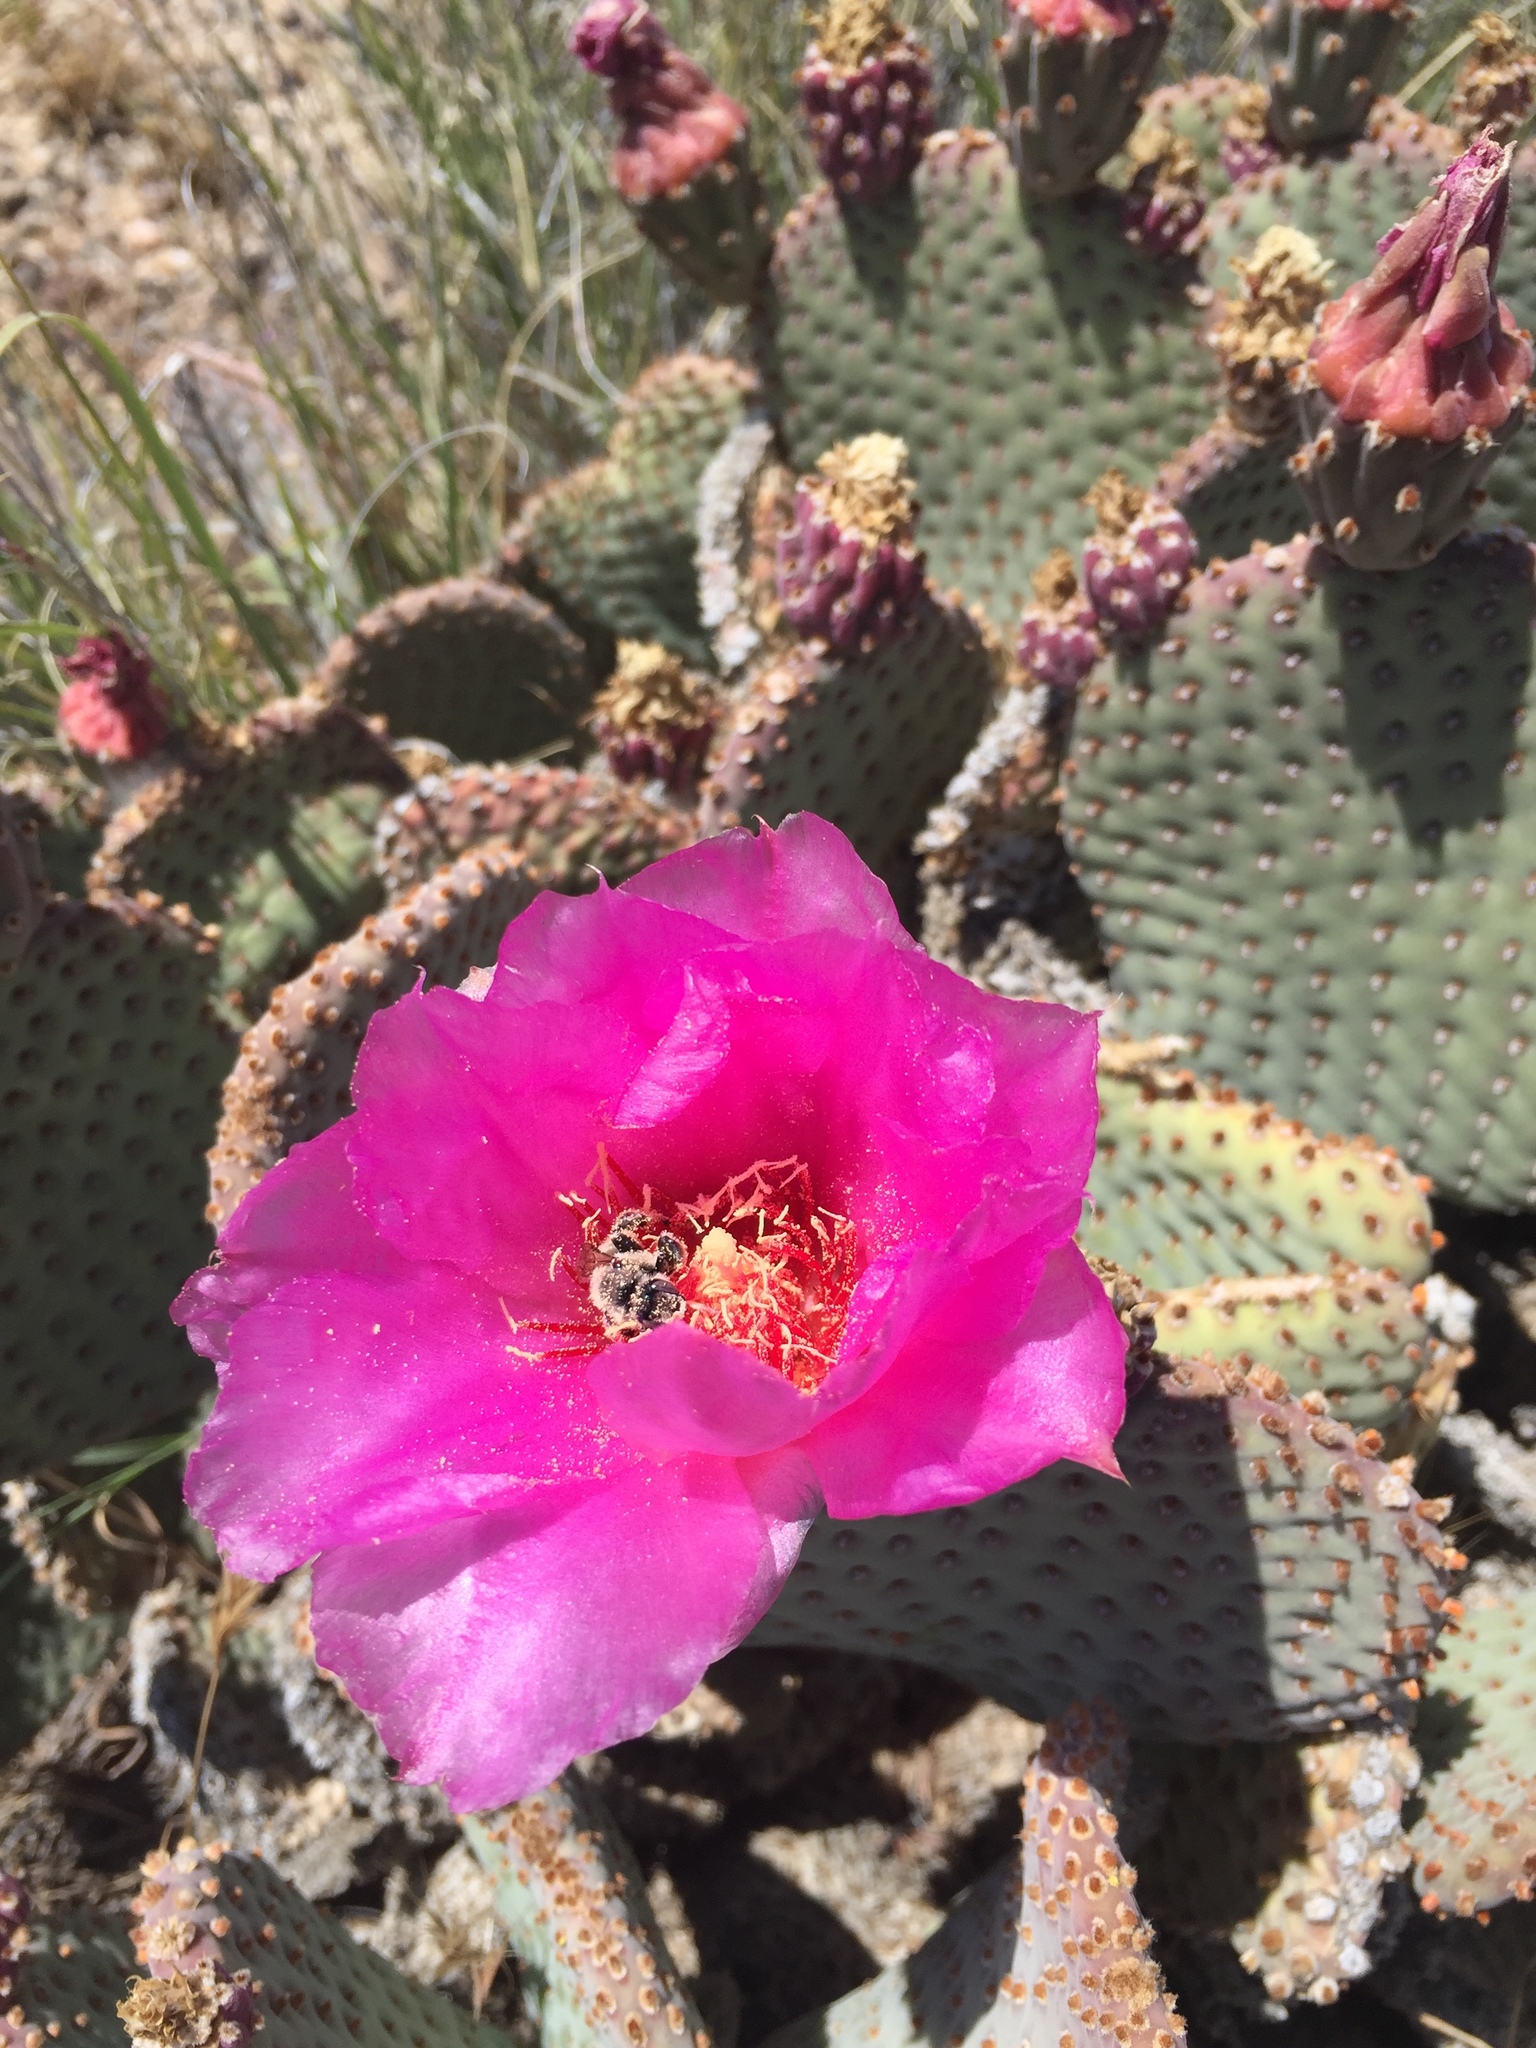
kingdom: Plantae
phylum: Tracheophyta
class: Magnoliopsida
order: Caryophyllales
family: Cactaceae
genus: Opuntia
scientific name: Opuntia basilaris
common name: Beavertail prickly-pear
